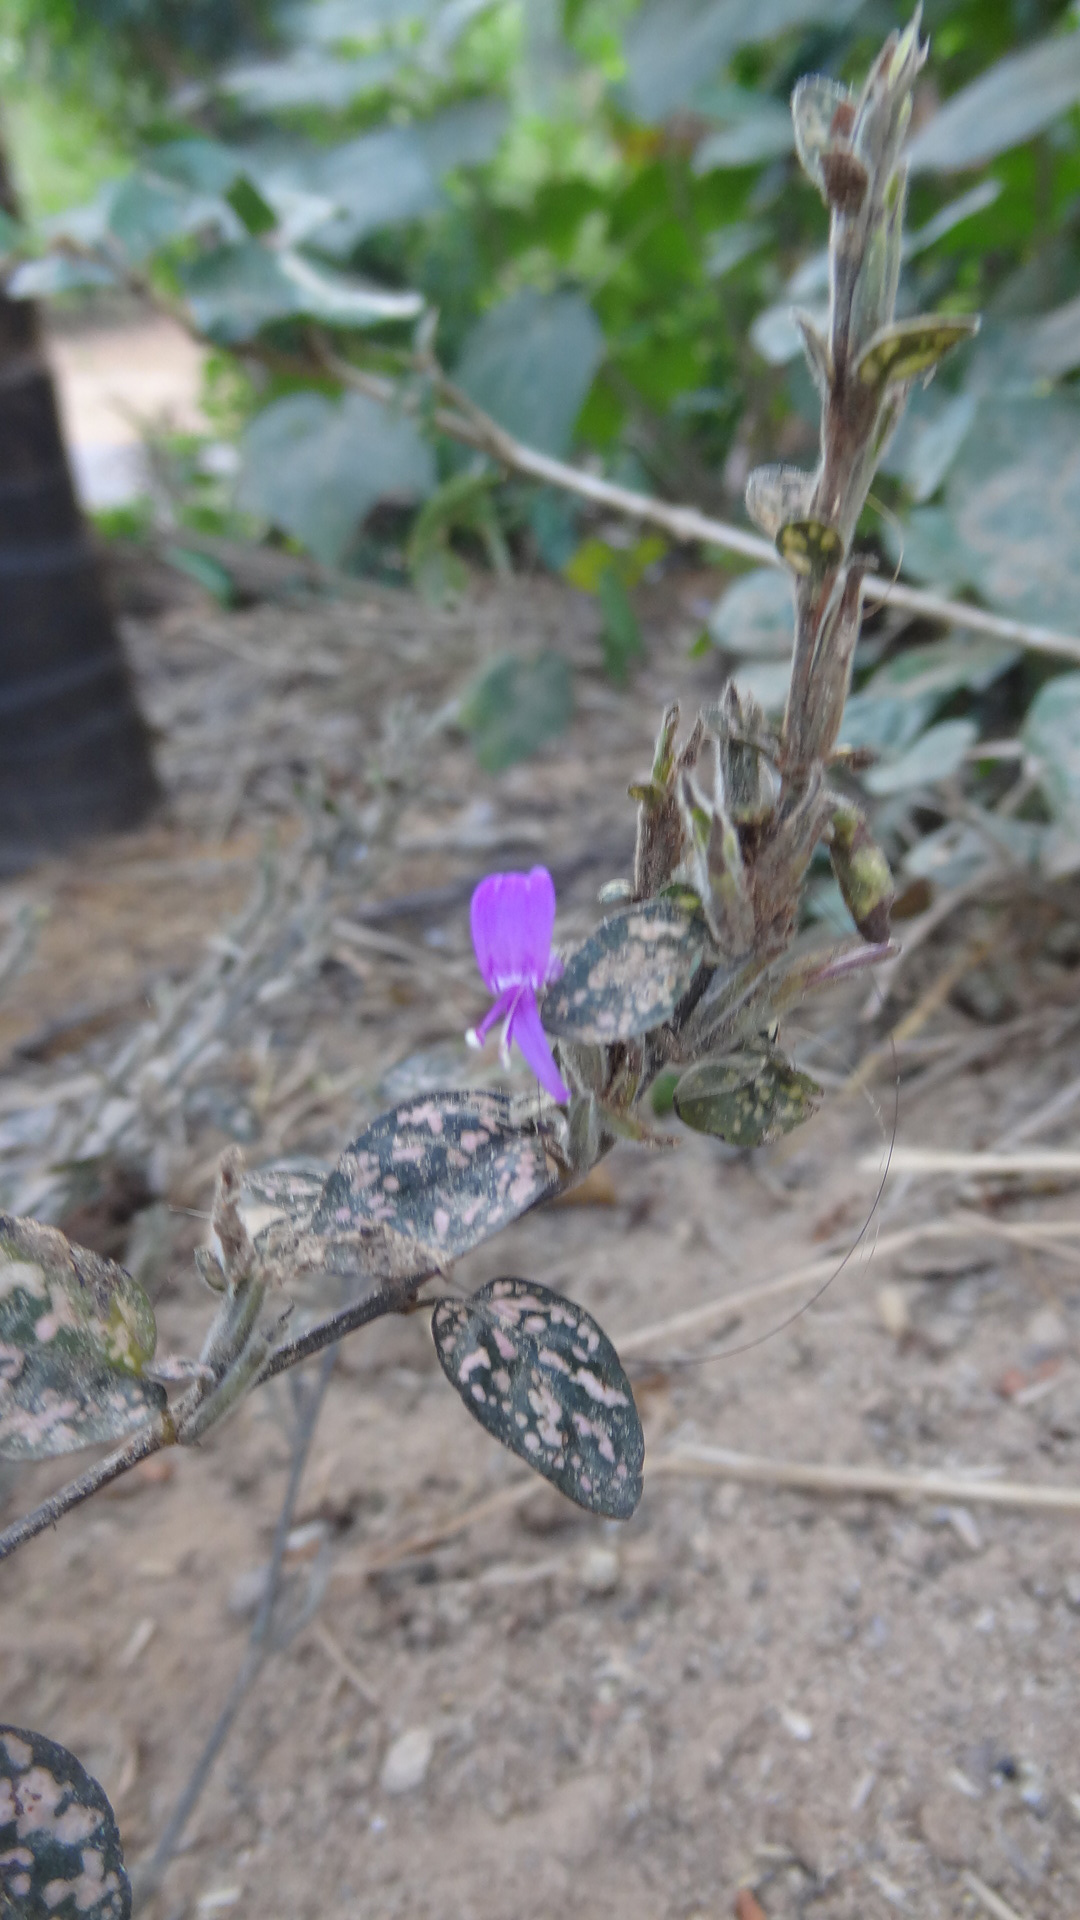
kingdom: Plantae
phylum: Tracheophyta
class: Magnoliopsida
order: Lamiales
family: Acanthaceae
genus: Hypoestes
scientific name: Hypoestes phyllostachya
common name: Polkadot-plant
